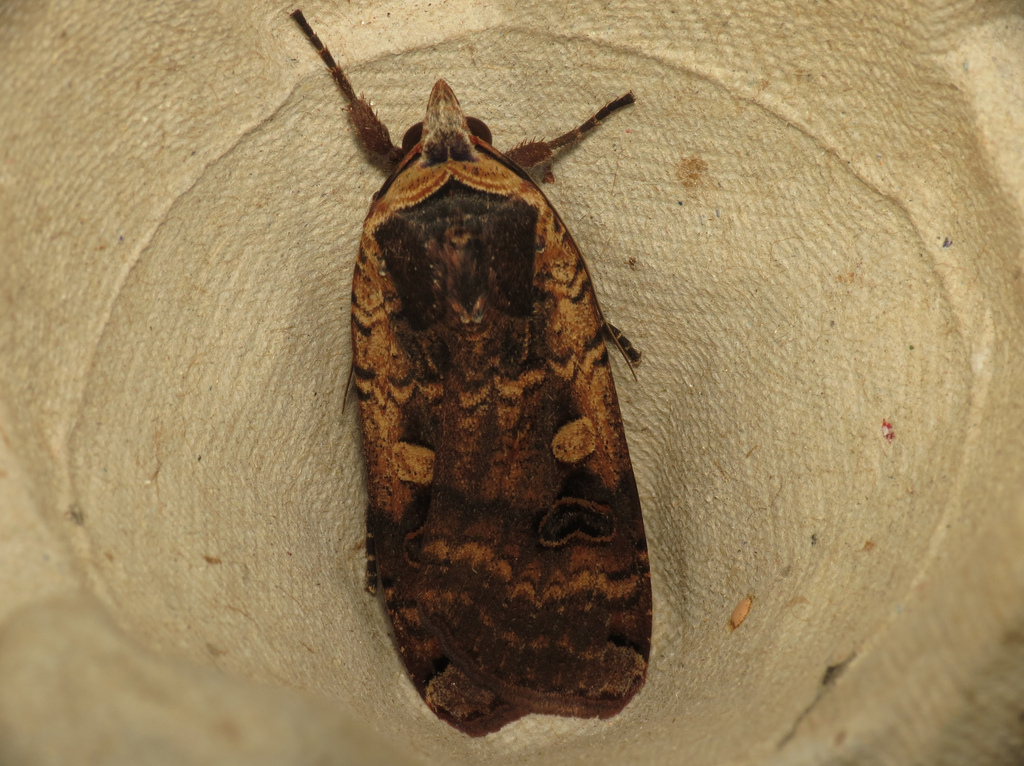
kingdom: Animalia
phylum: Arthropoda
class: Insecta
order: Lepidoptera
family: Noctuidae
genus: Noctua
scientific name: Noctua pronuba
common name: Large yellow underwing
